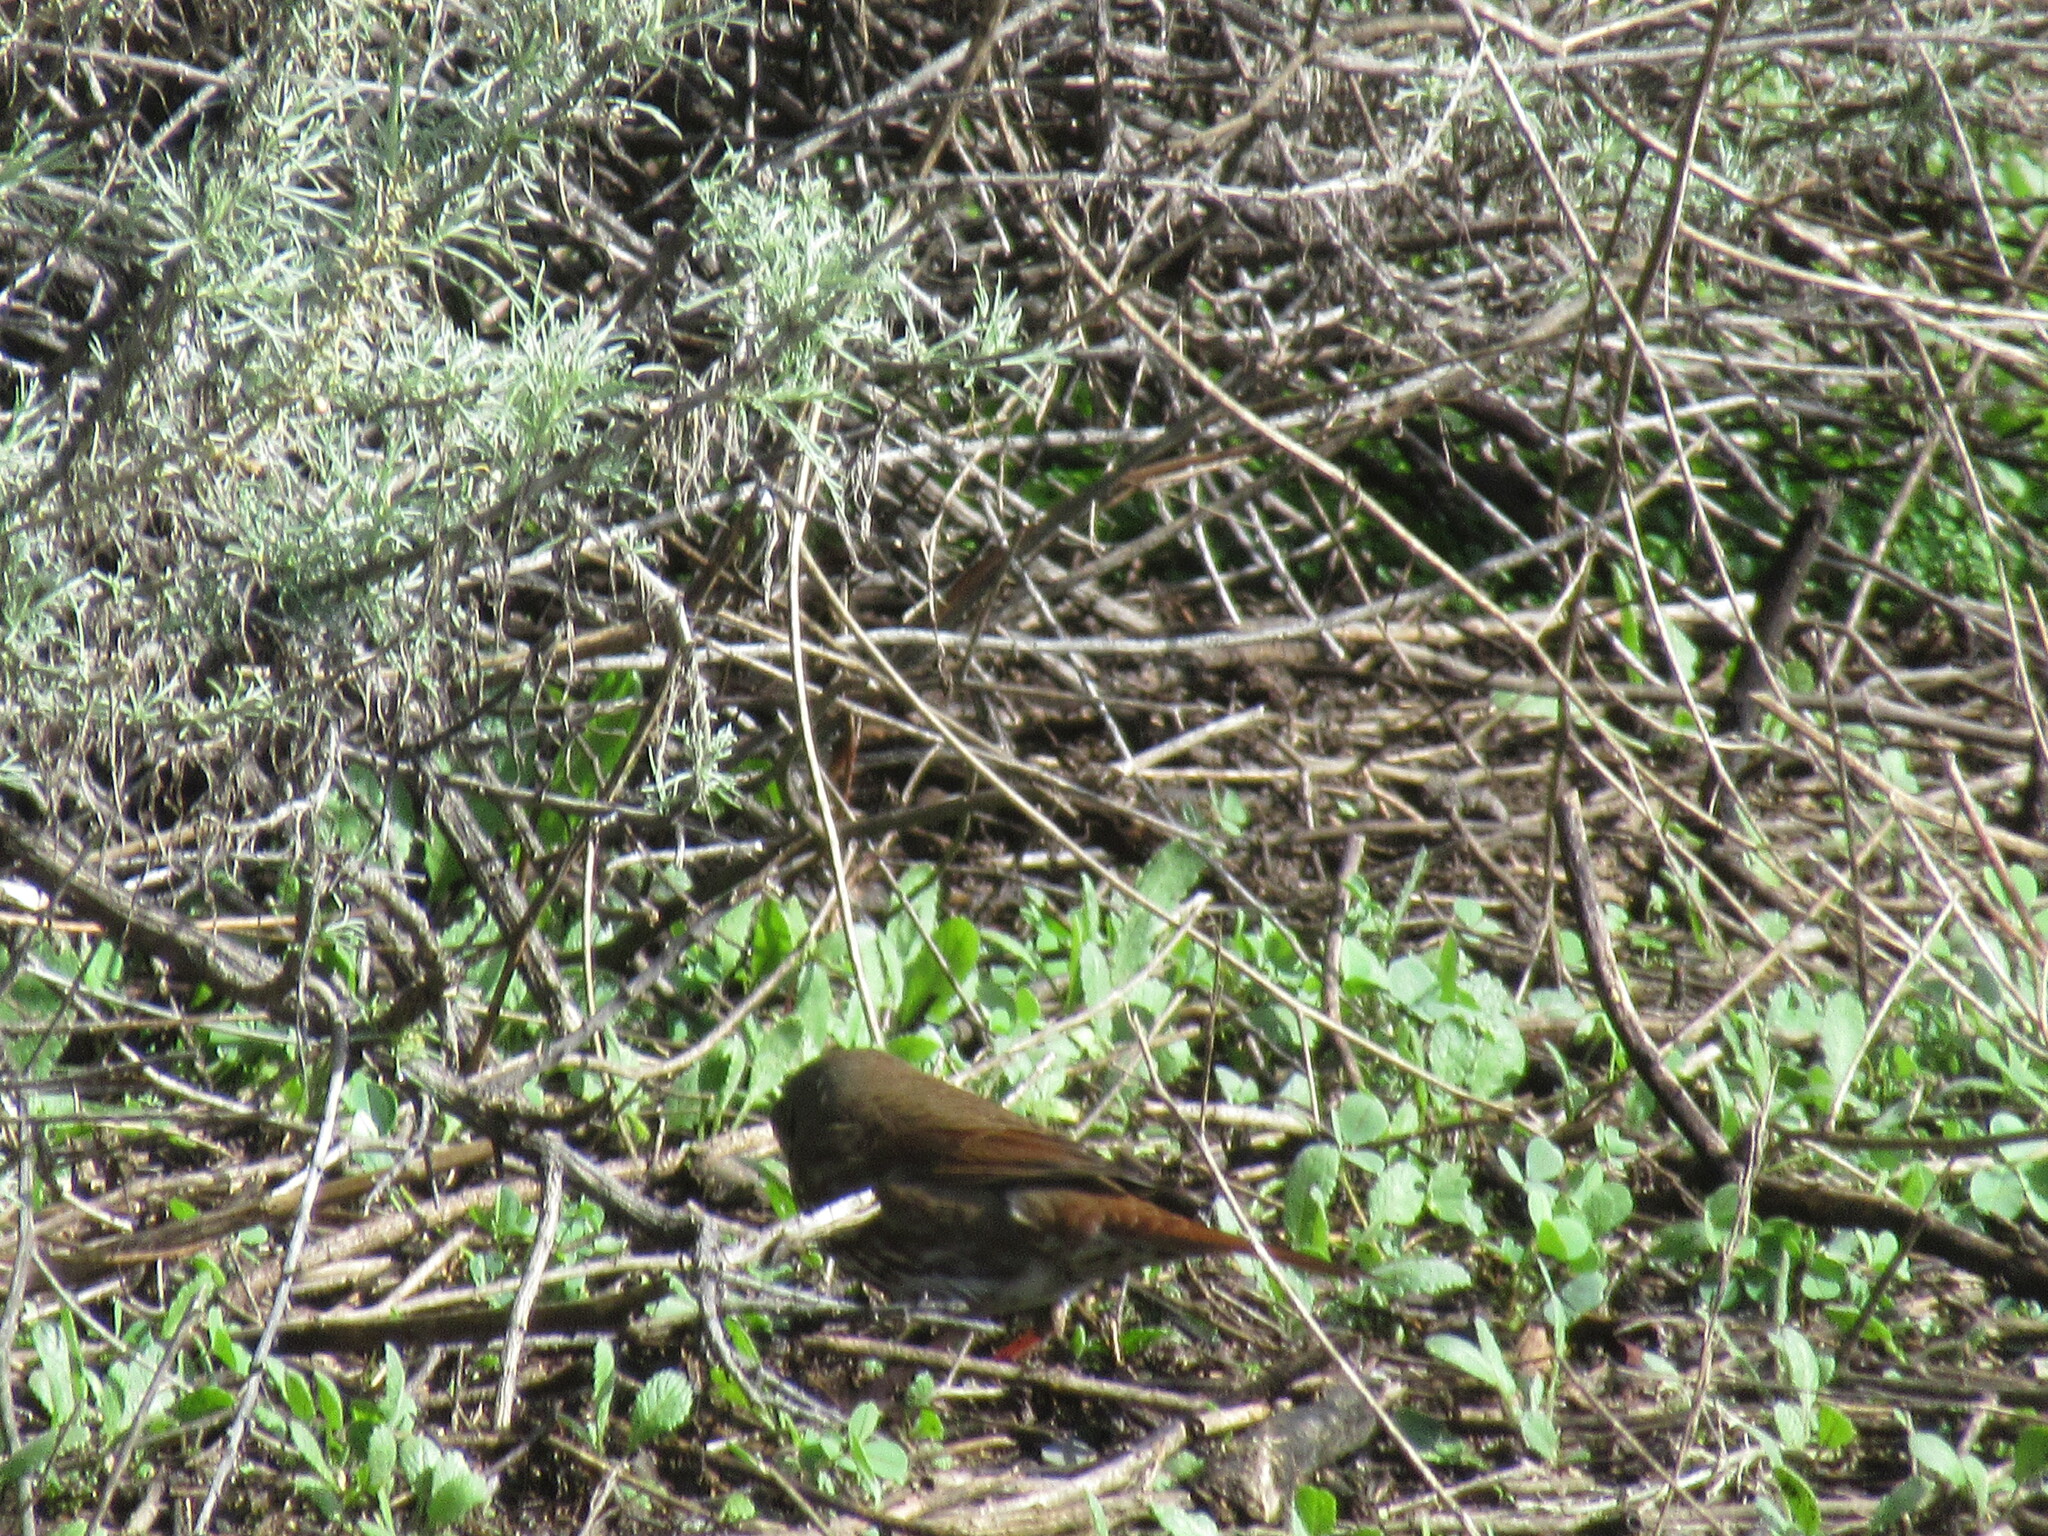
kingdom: Animalia
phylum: Chordata
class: Aves
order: Passeriformes
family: Passerellidae
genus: Passerella
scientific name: Passerella iliaca
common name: Fox sparrow
